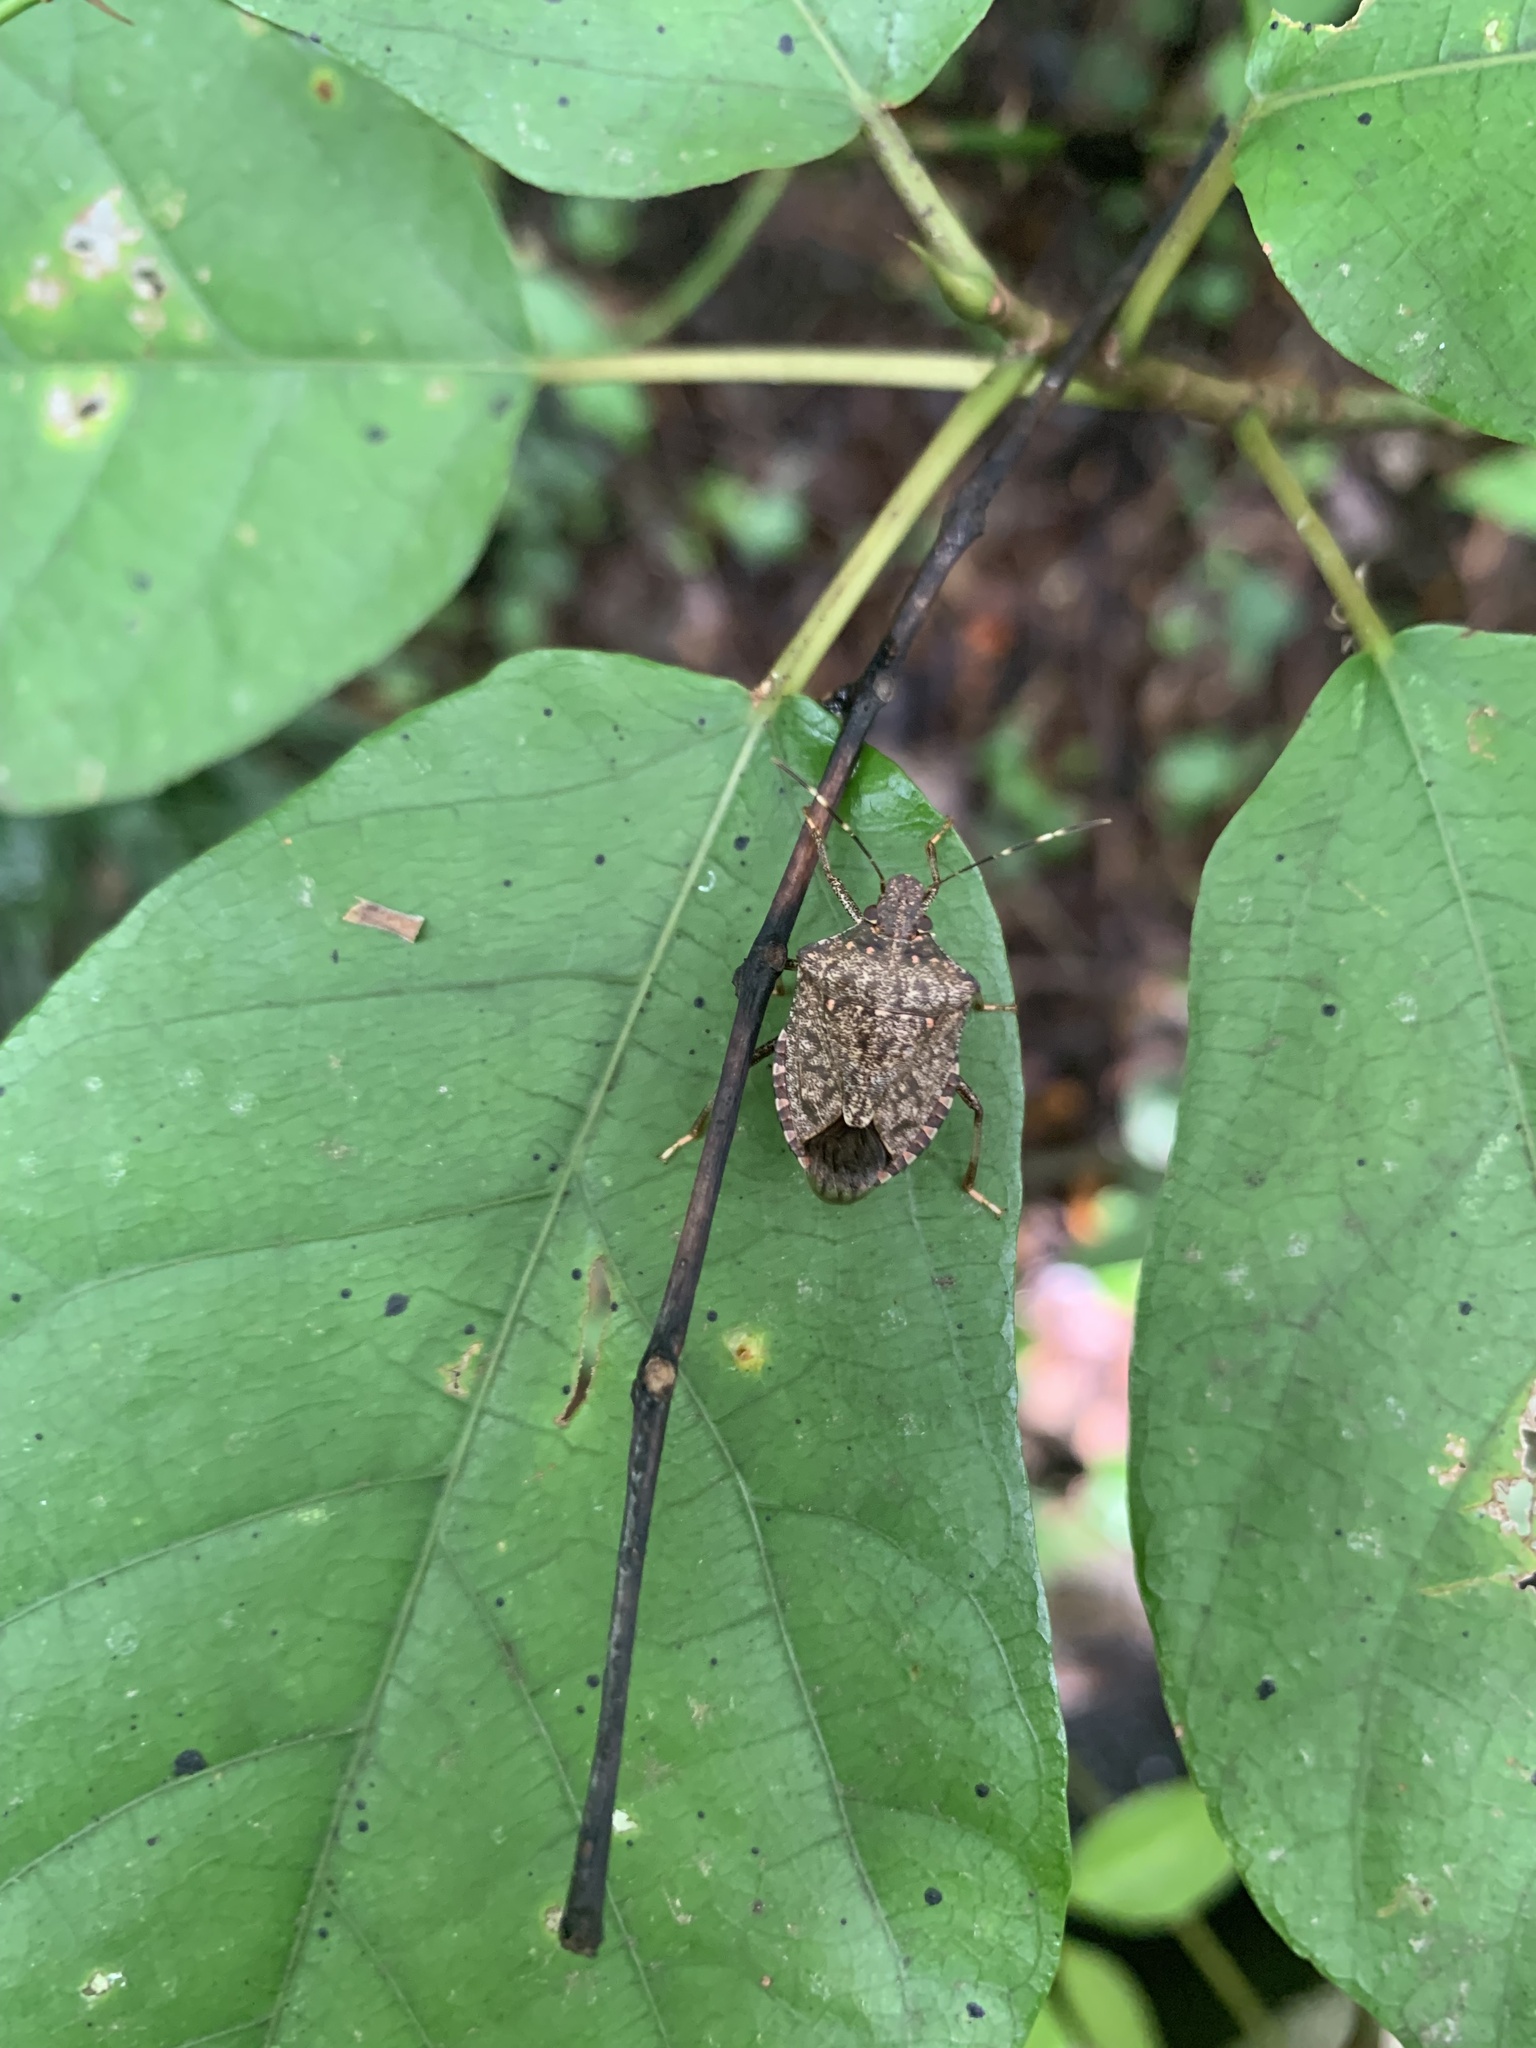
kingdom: Animalia
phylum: Arthropoda
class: Insecta
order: Hemiptera
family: Pentatomidae
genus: Halyomorpha
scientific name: Halyomorpha halys
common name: Brown marmorated stink bug
